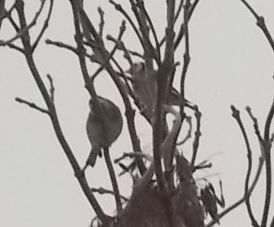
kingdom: Animalia
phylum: Chordata
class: Aves
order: Passeriformes
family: Fringillidae
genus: Carduelis
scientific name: Carduelis carduelis
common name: European goldfinch
